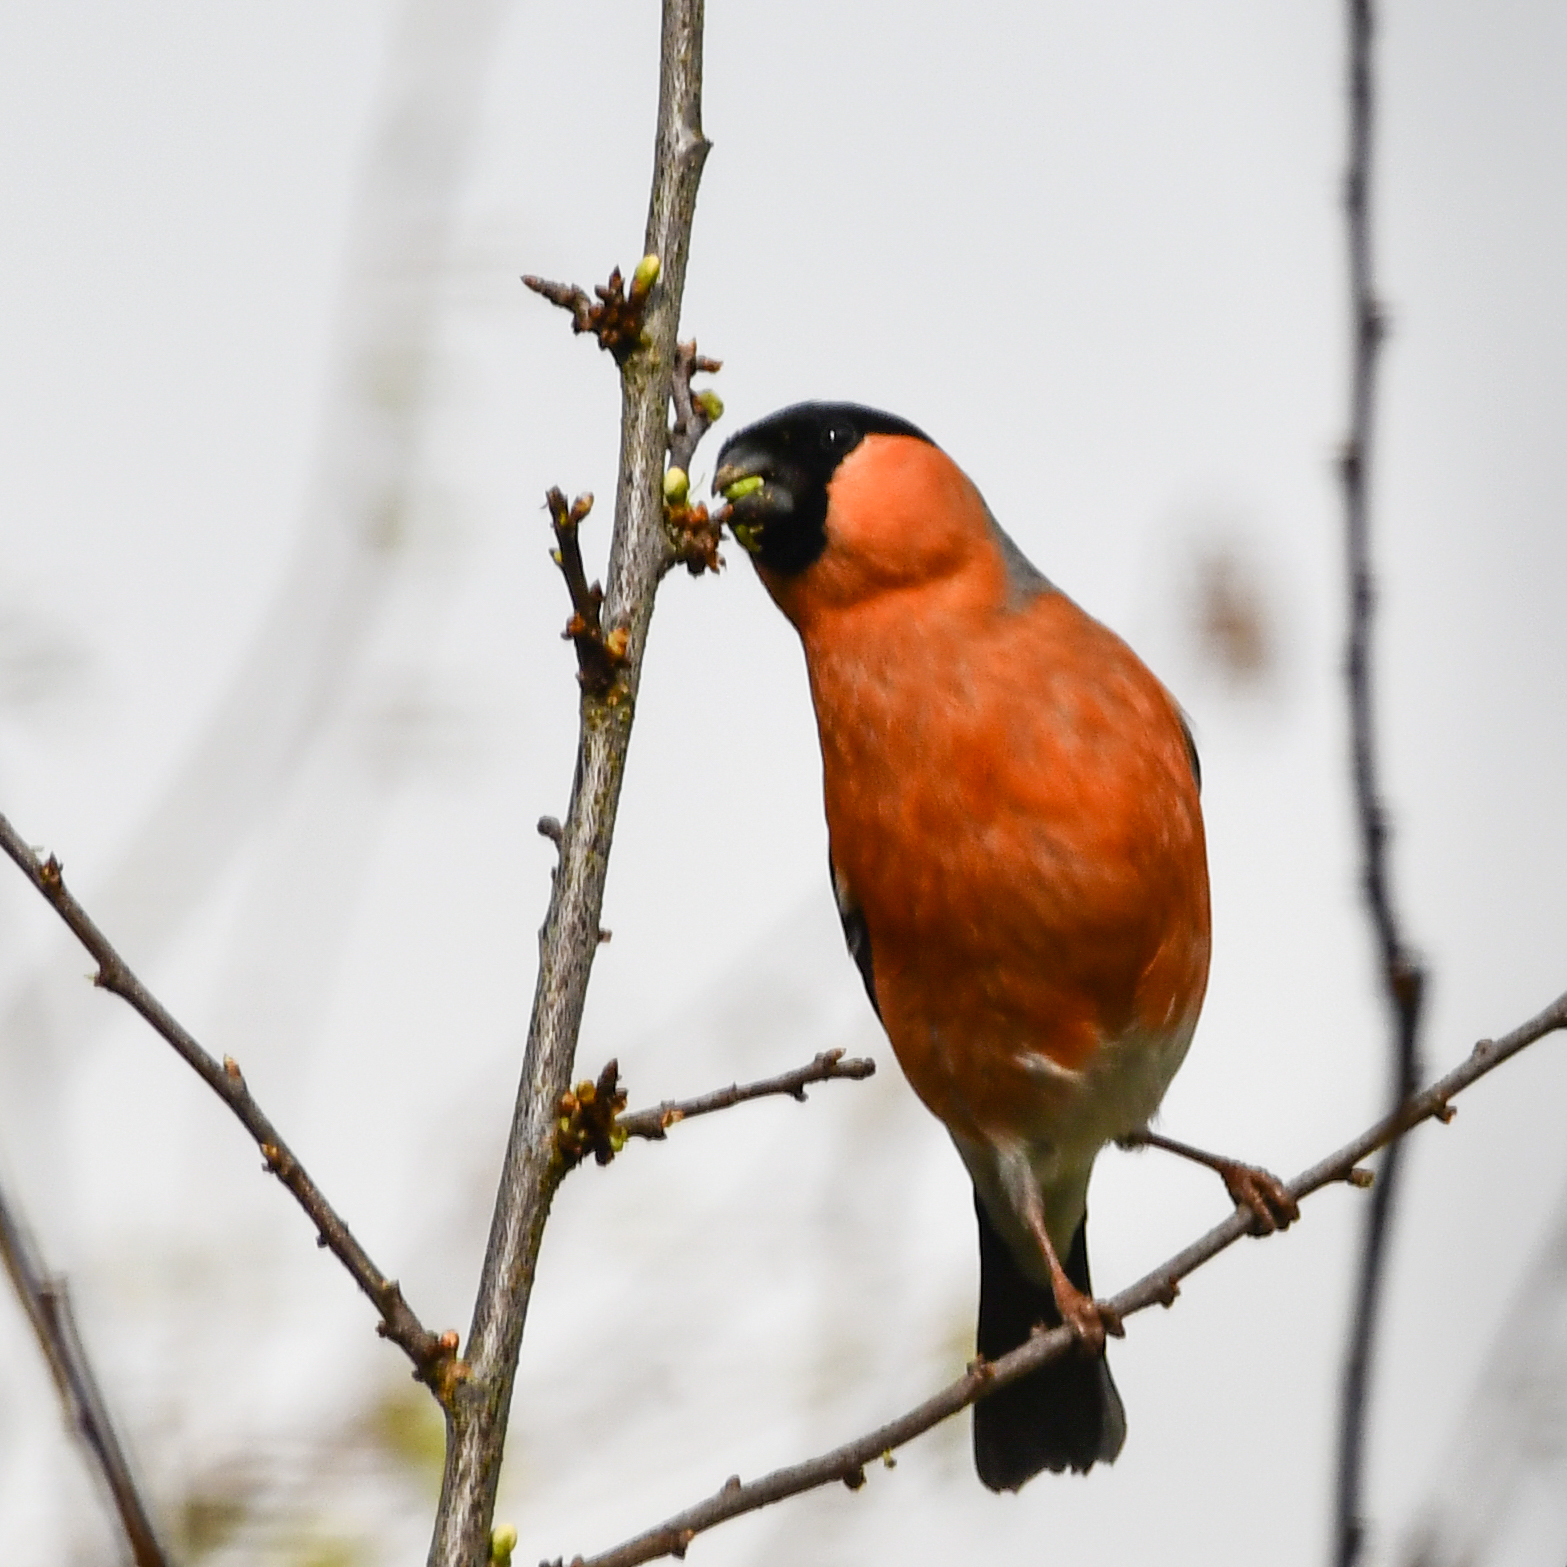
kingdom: Animalia
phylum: Chordata
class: Aves
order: Passeriformes
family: Fringillidae
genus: Pyrrhula
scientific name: Pyrrhula pyrrhula
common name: Eurasian bullfinch
